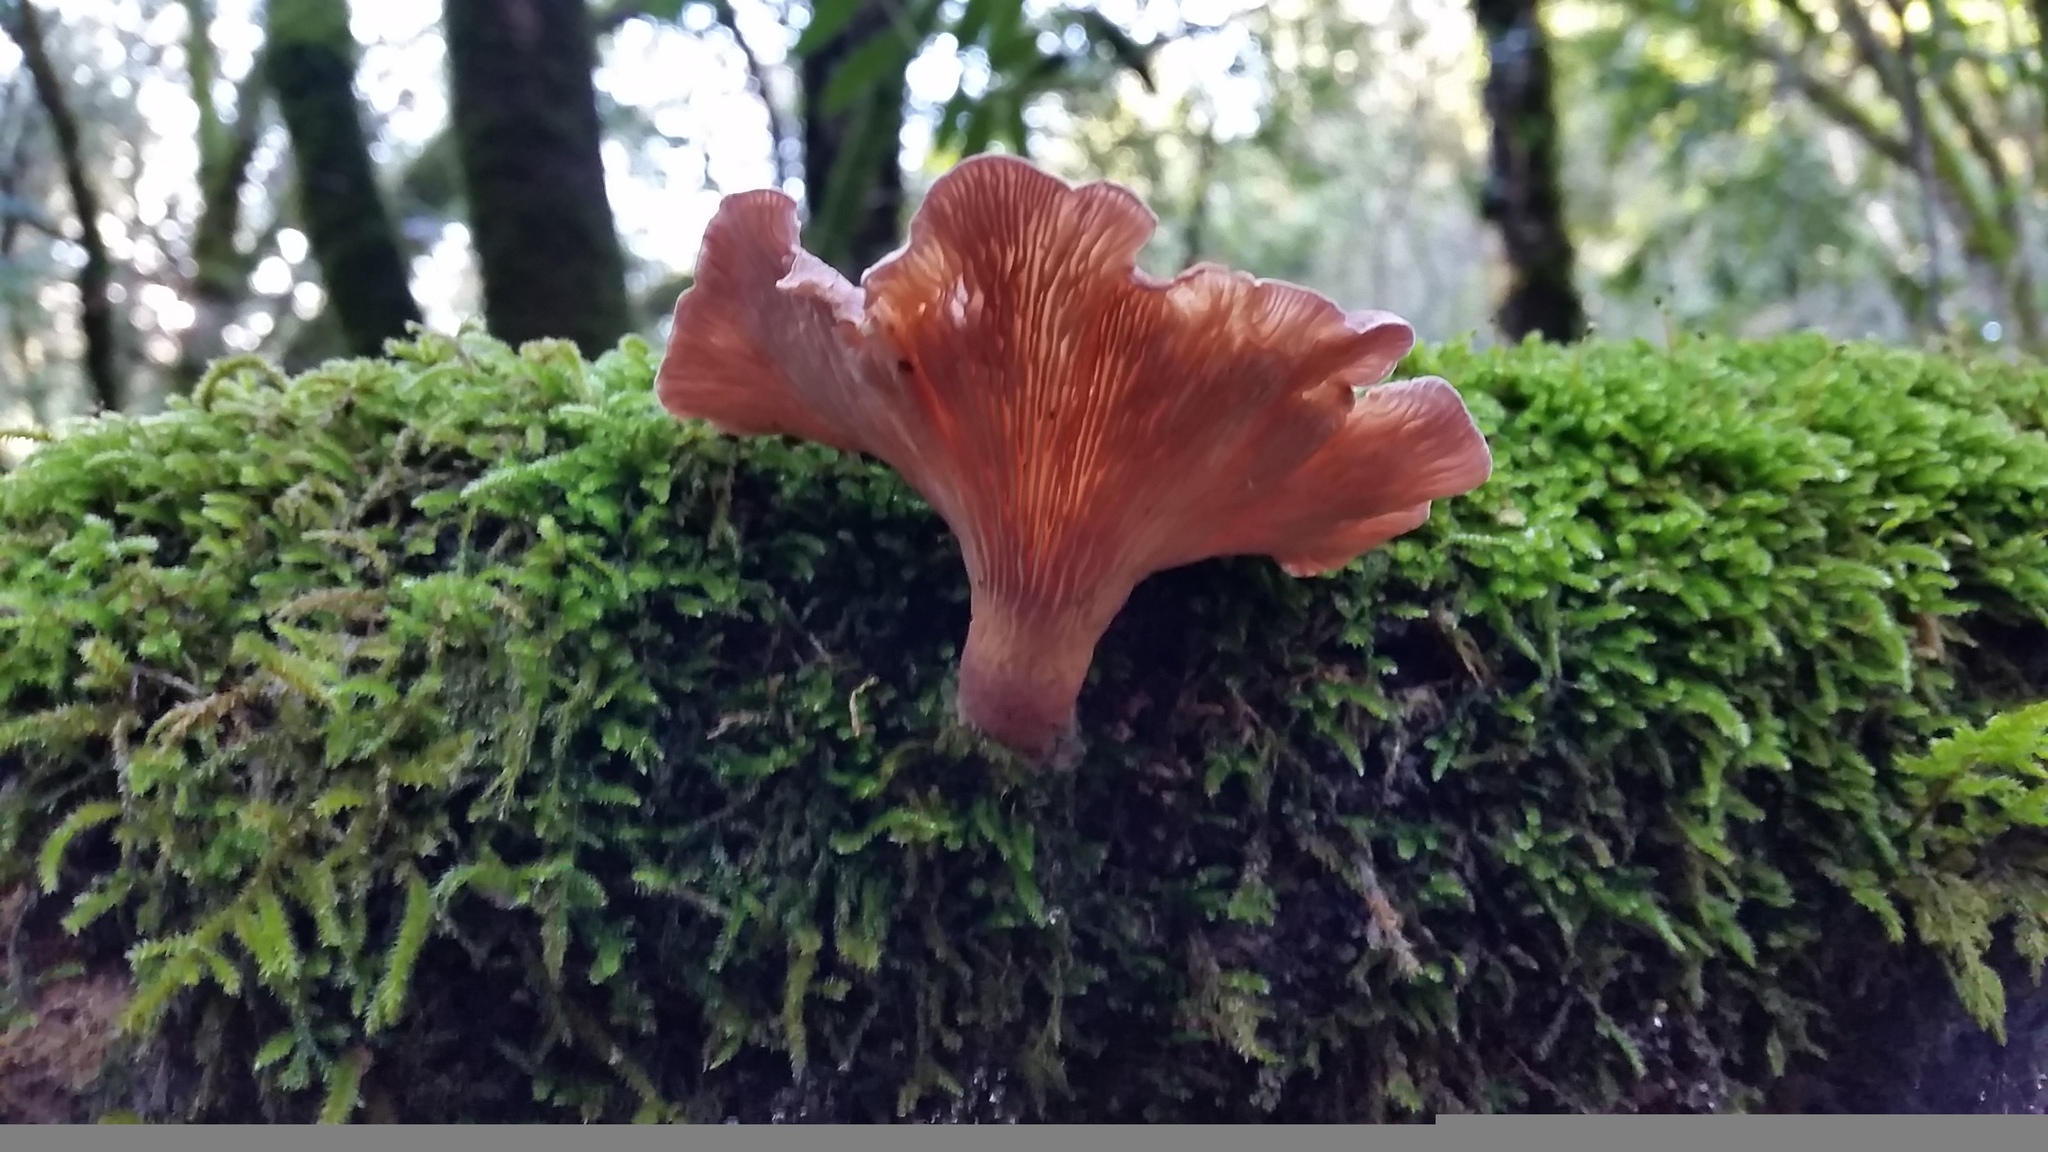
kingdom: Fungi
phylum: Basidiomycota
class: Agaricomycetes
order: Polyporales
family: Panaceae
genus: Panus
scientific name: Panus conchatus
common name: Lilac oysterling
